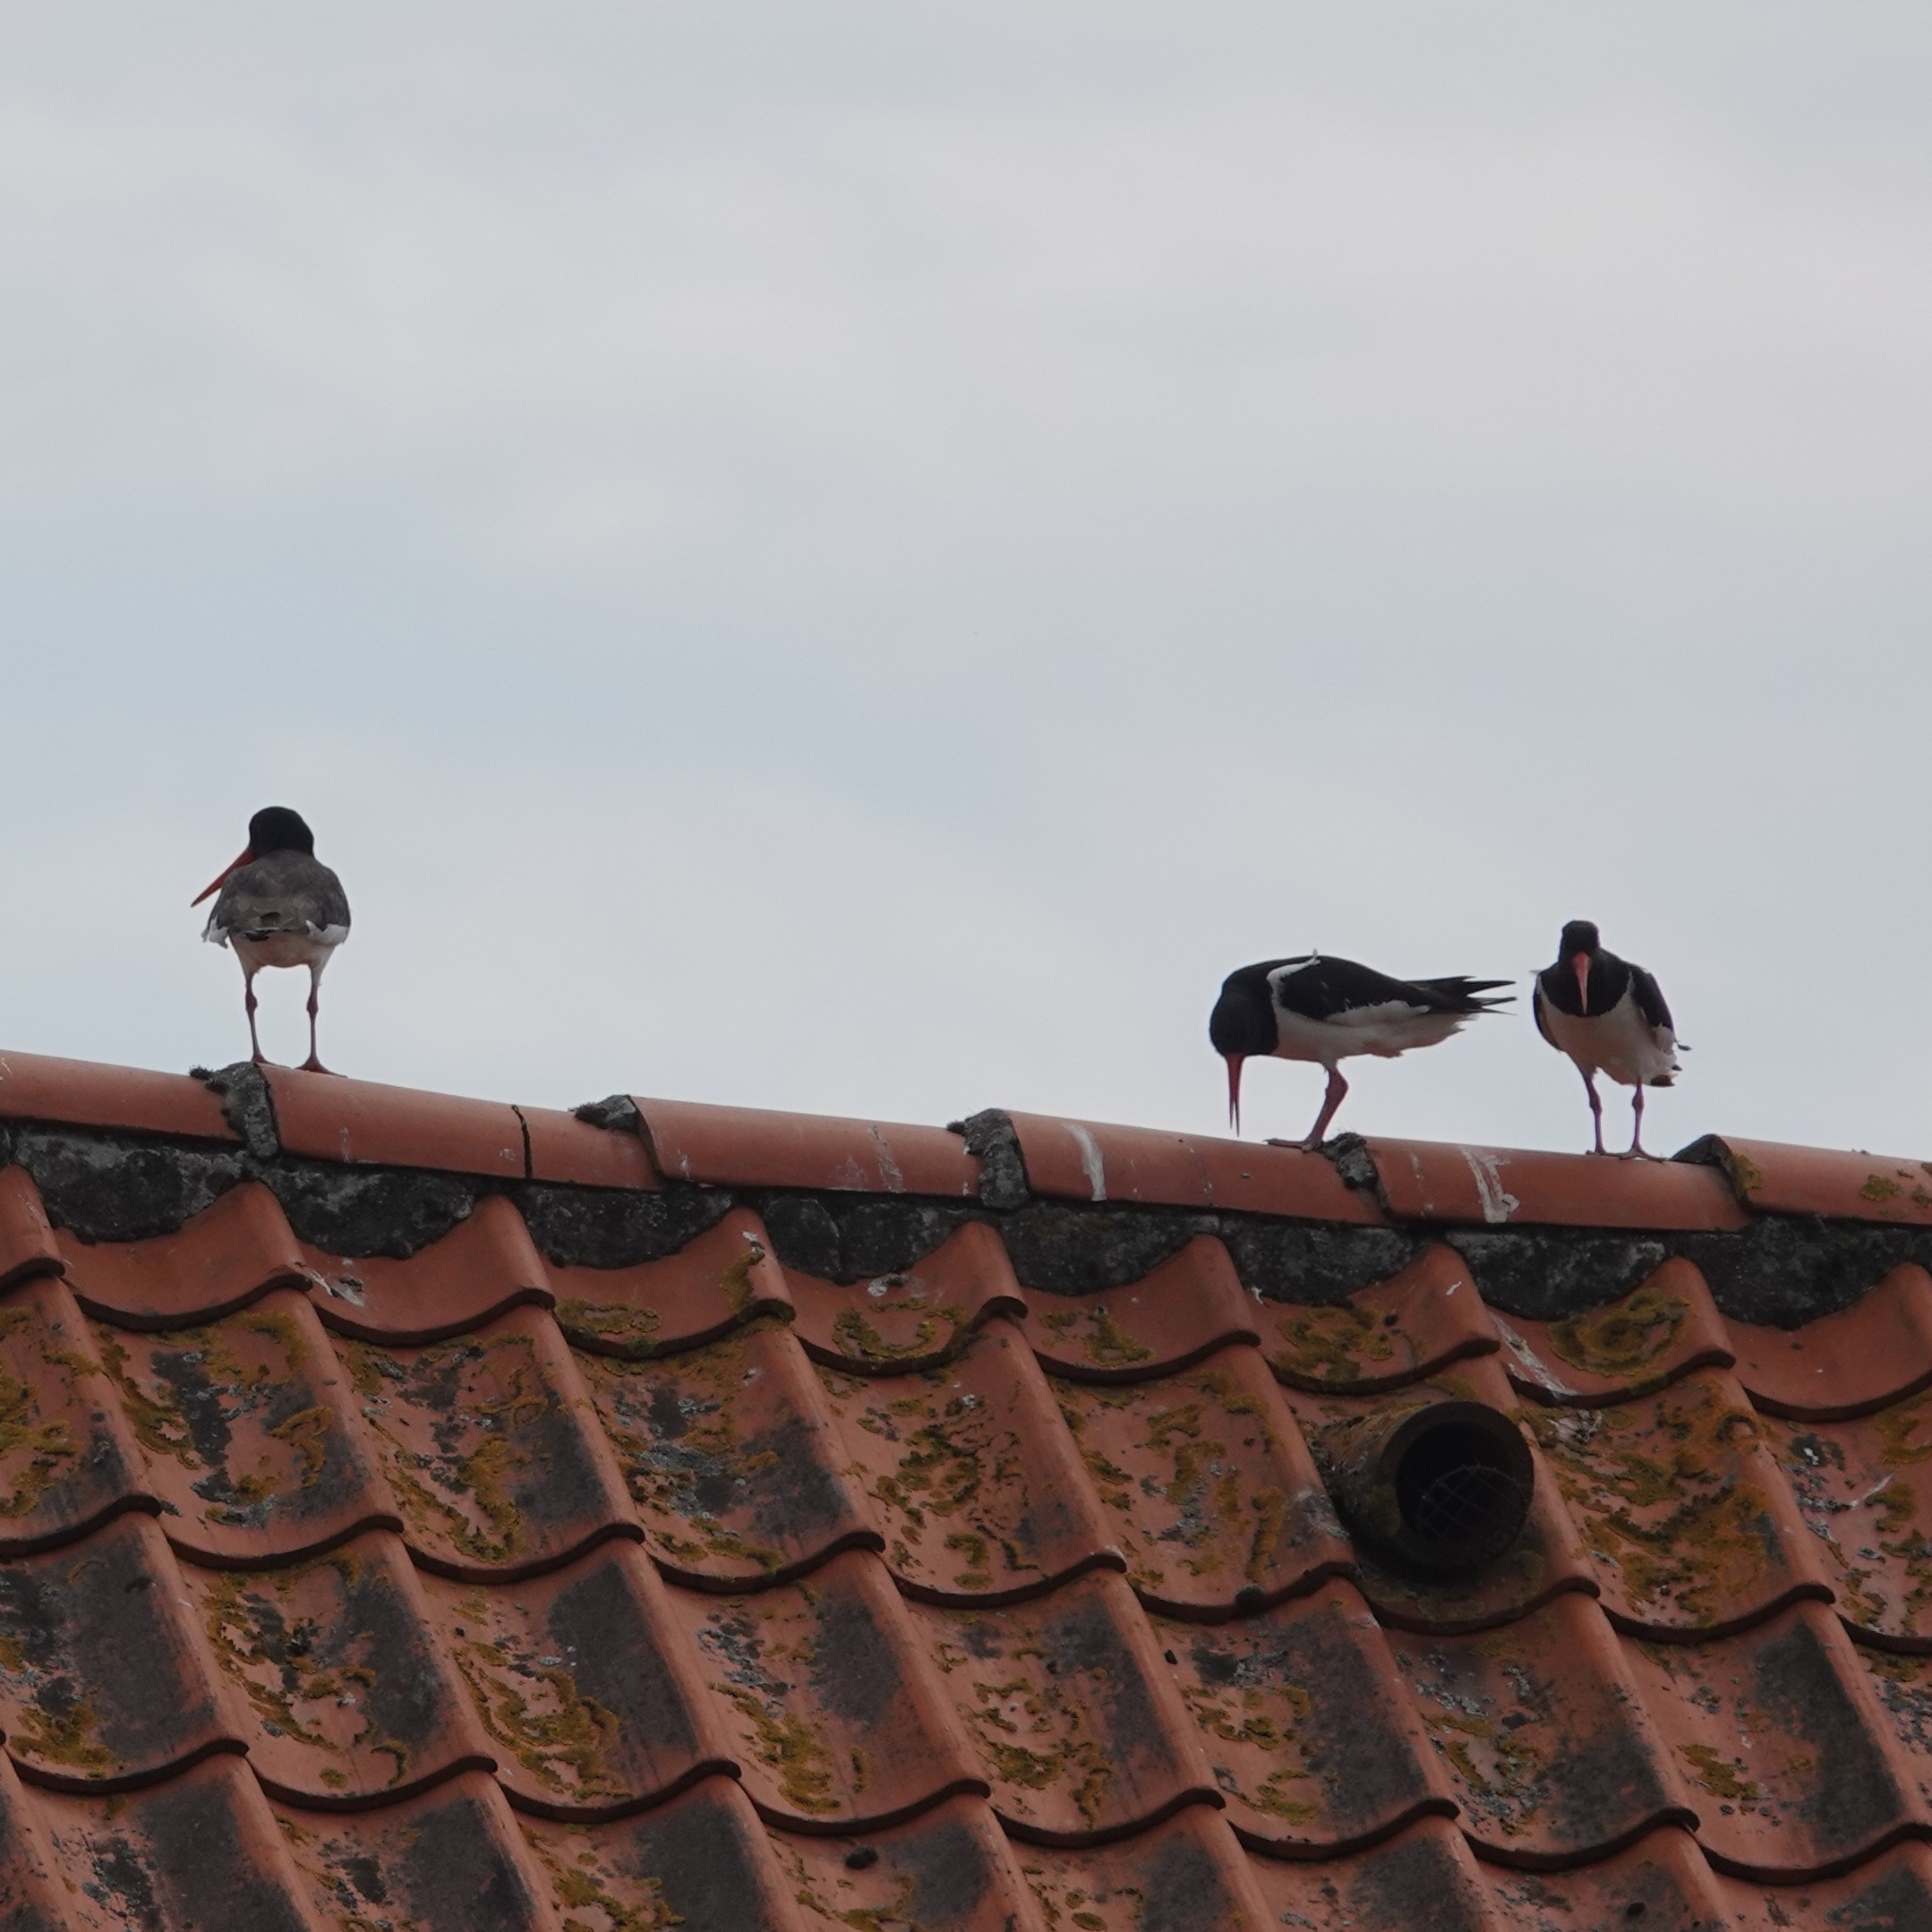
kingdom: Animalia
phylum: Chordata
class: Aves
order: Charadriiformes
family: Haematopodidae
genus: Haematopus
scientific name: Haematopus ostralegus
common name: Eurasian oystercatcher
